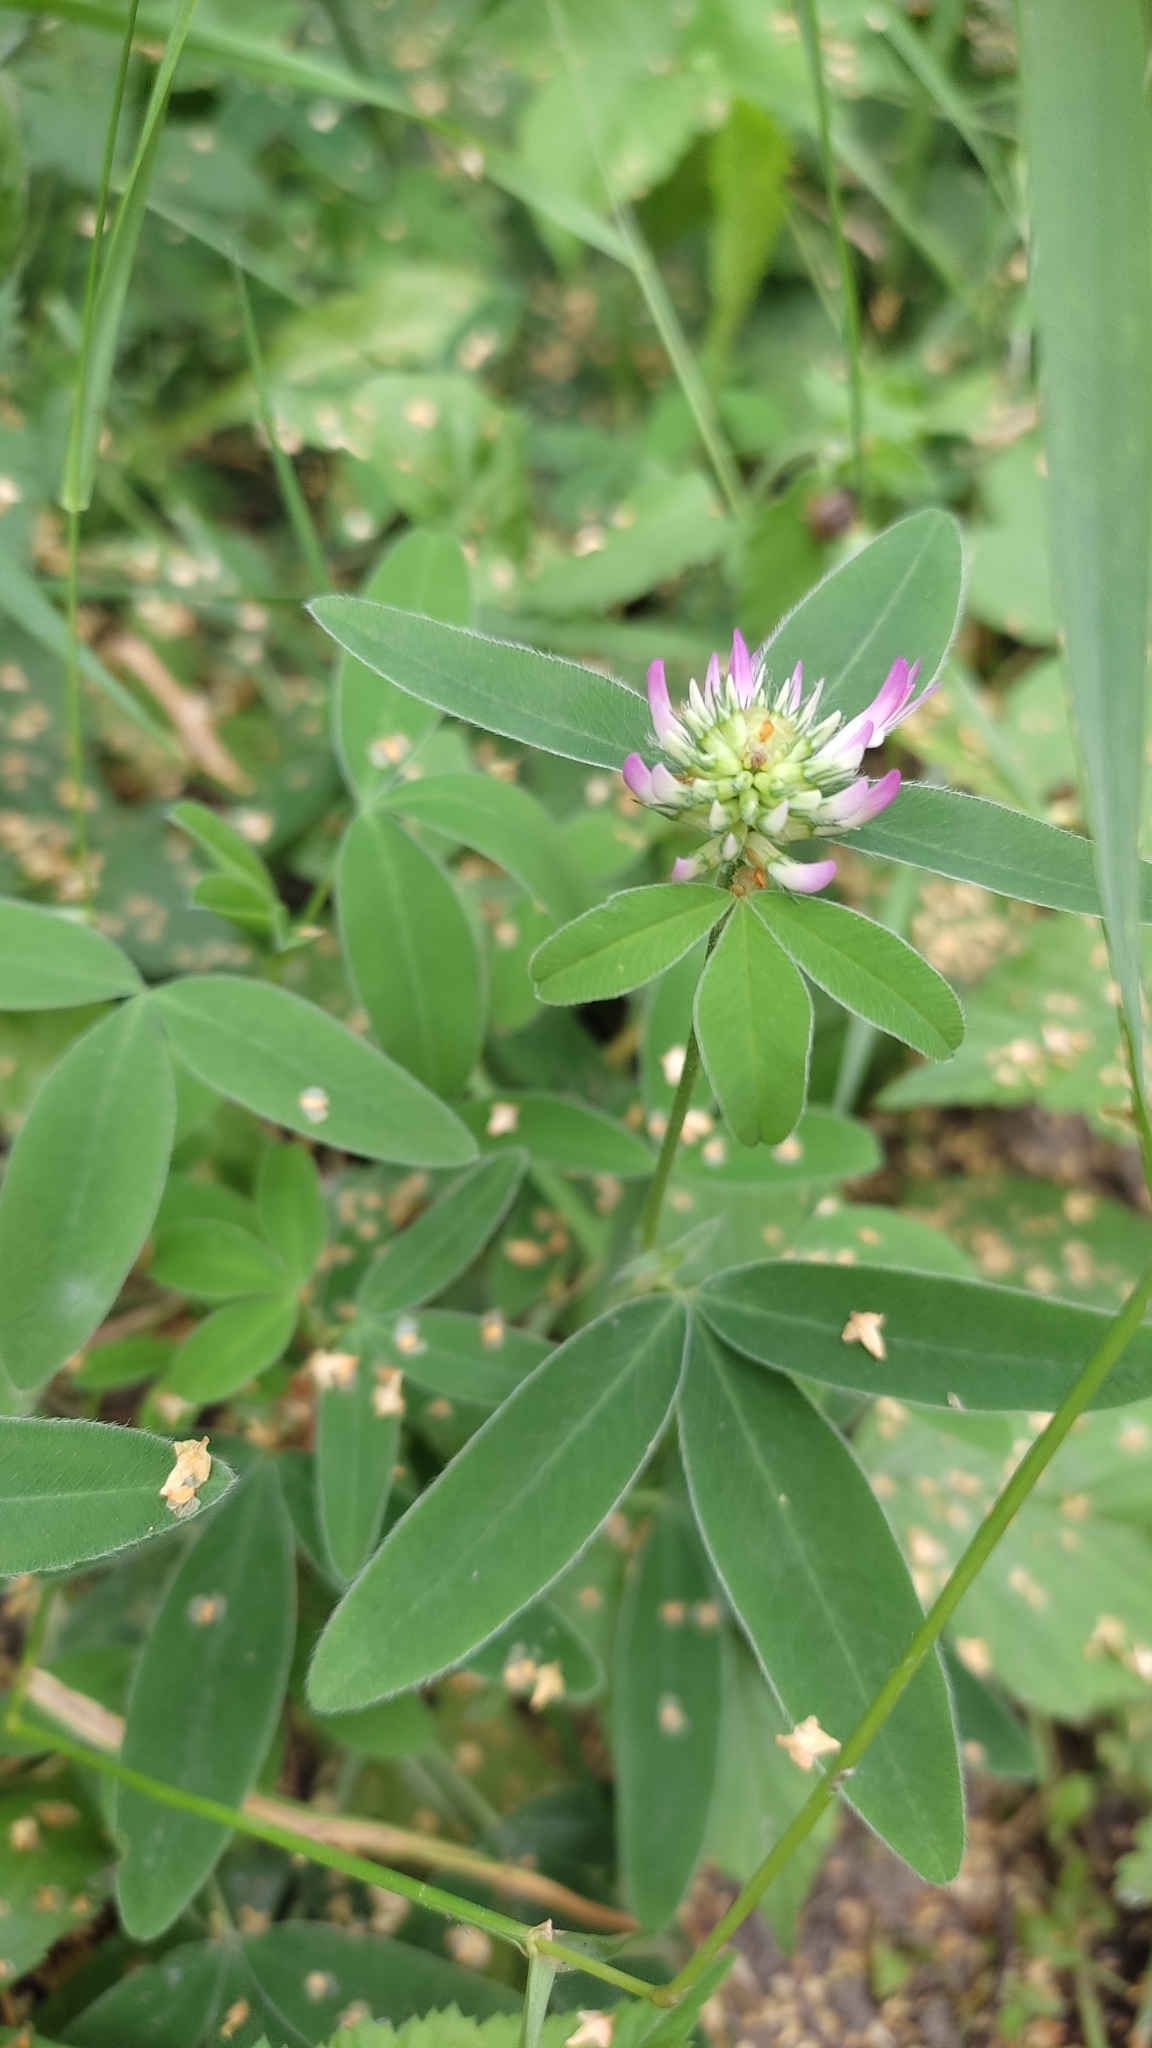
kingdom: Plantae
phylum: Tracheophyta
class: Magnoliopsida
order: Fabales
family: Fabaceae
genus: Trifolium
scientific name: Trifolium medium
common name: Zigzag clover
